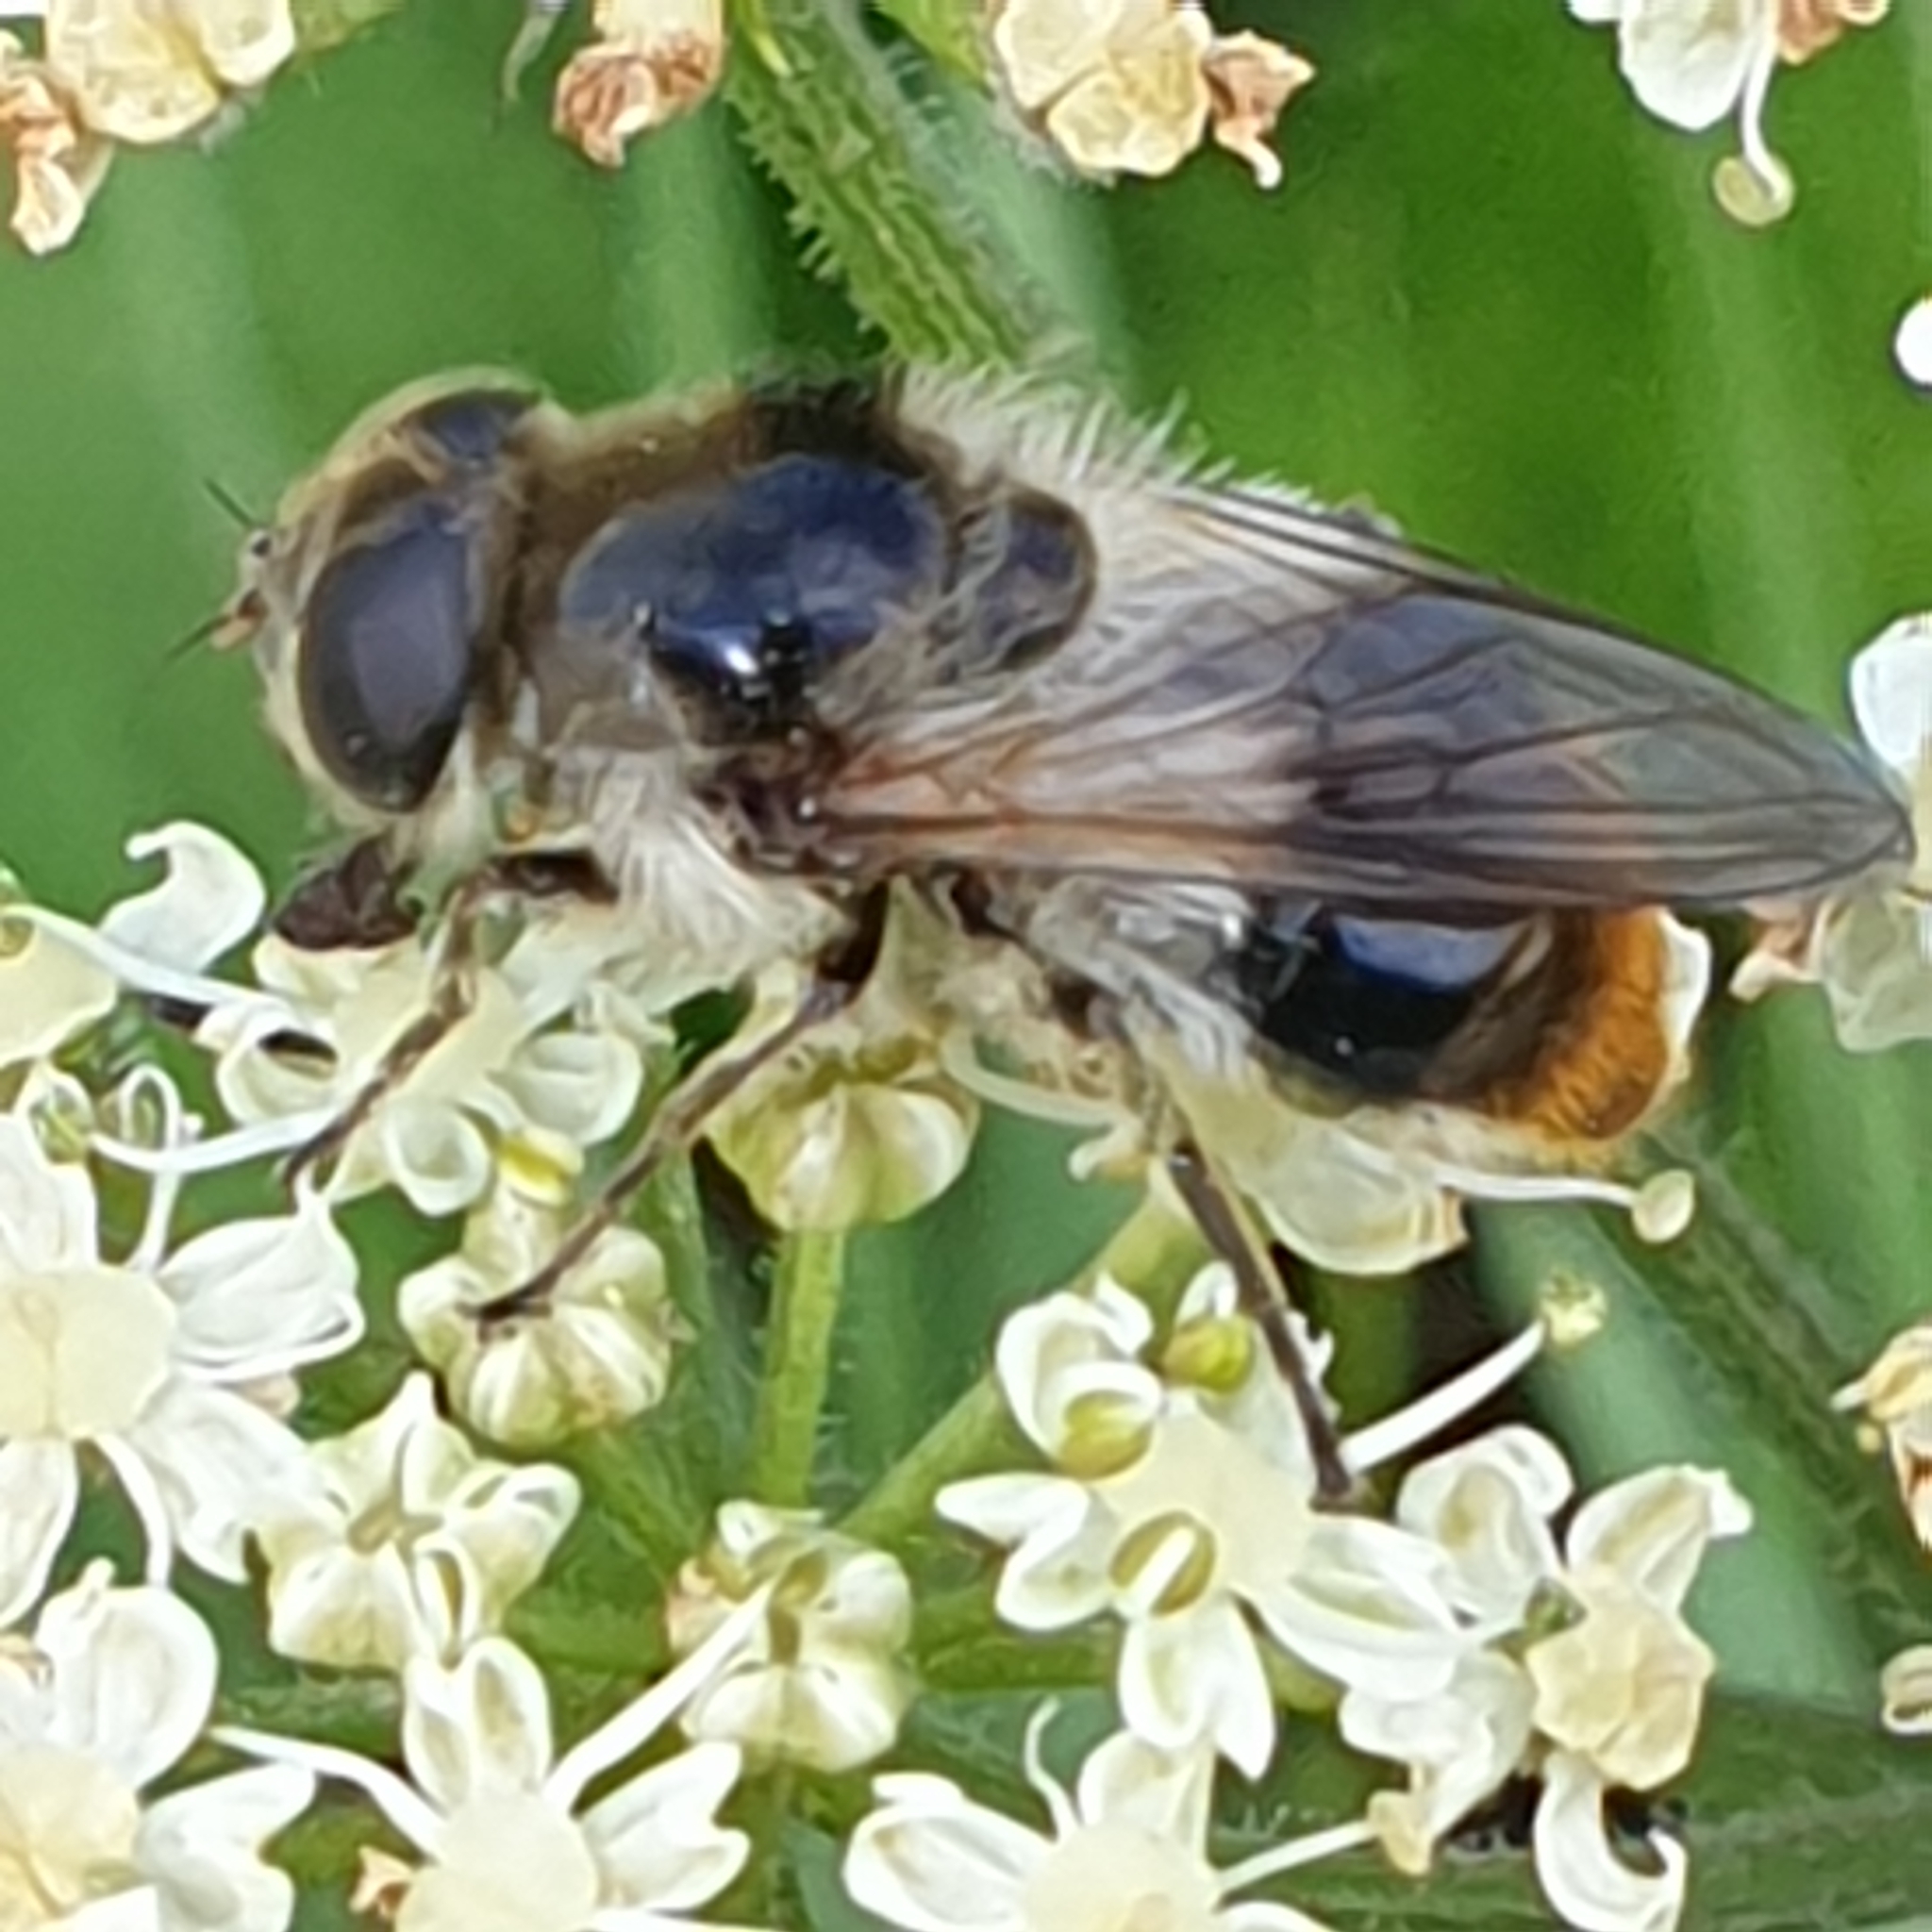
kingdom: Animalia
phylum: Arthropoda
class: Insecta
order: Diptera
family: Syrphidae
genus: Cheilosia
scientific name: Cheilosia illustrata
